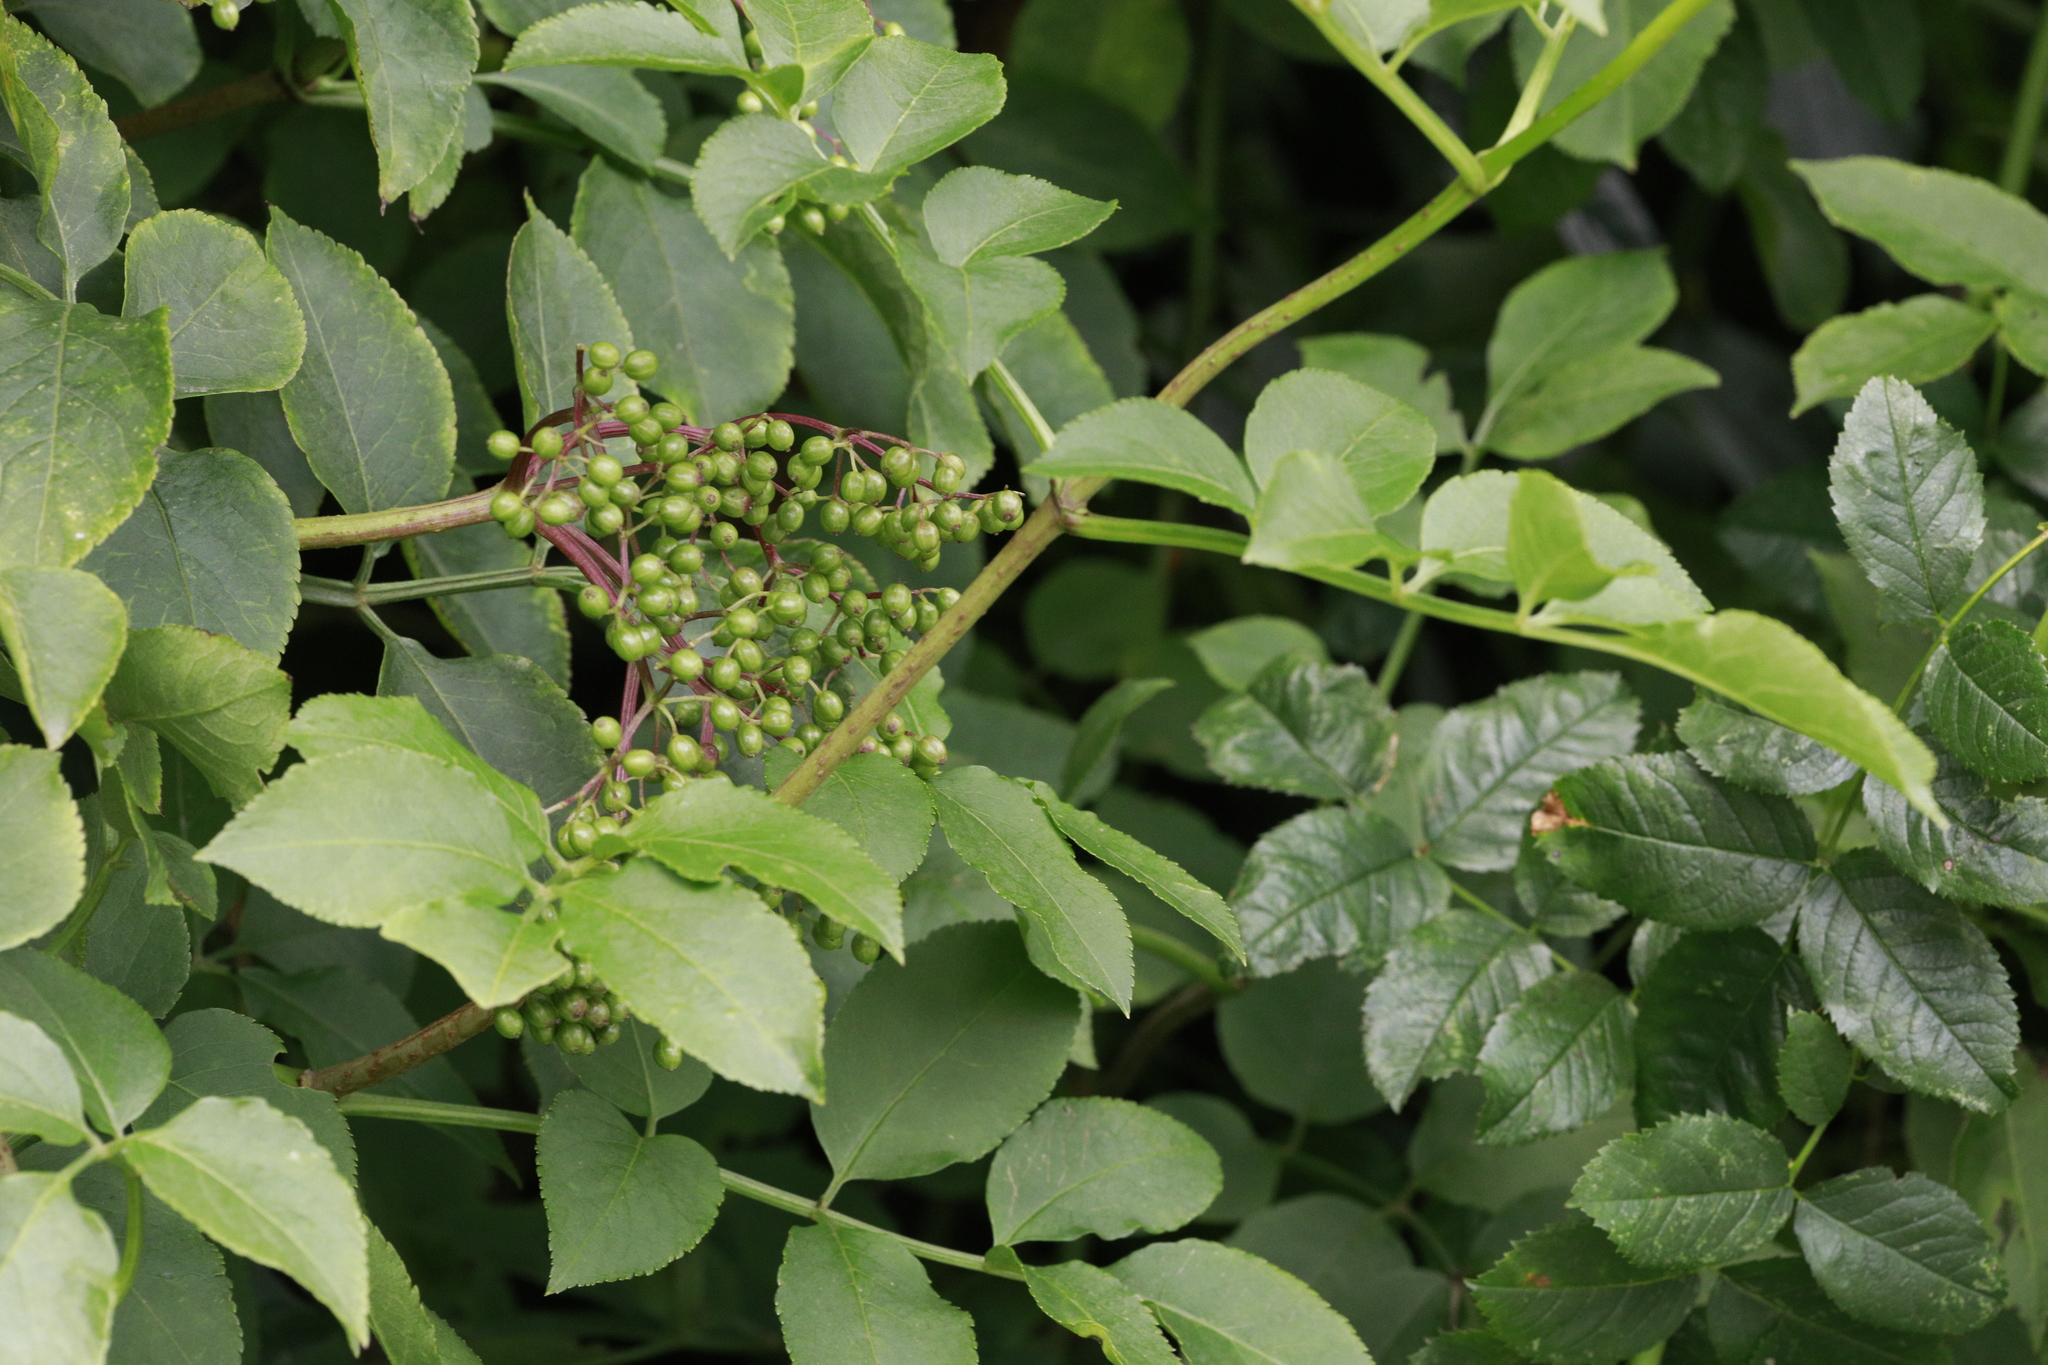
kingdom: Plantae
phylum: Tracheophyta
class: Magnoliopsida
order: Dipsacales
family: Viburnaceae
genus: Sambucus
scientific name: Sambucus nigra
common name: Elder
